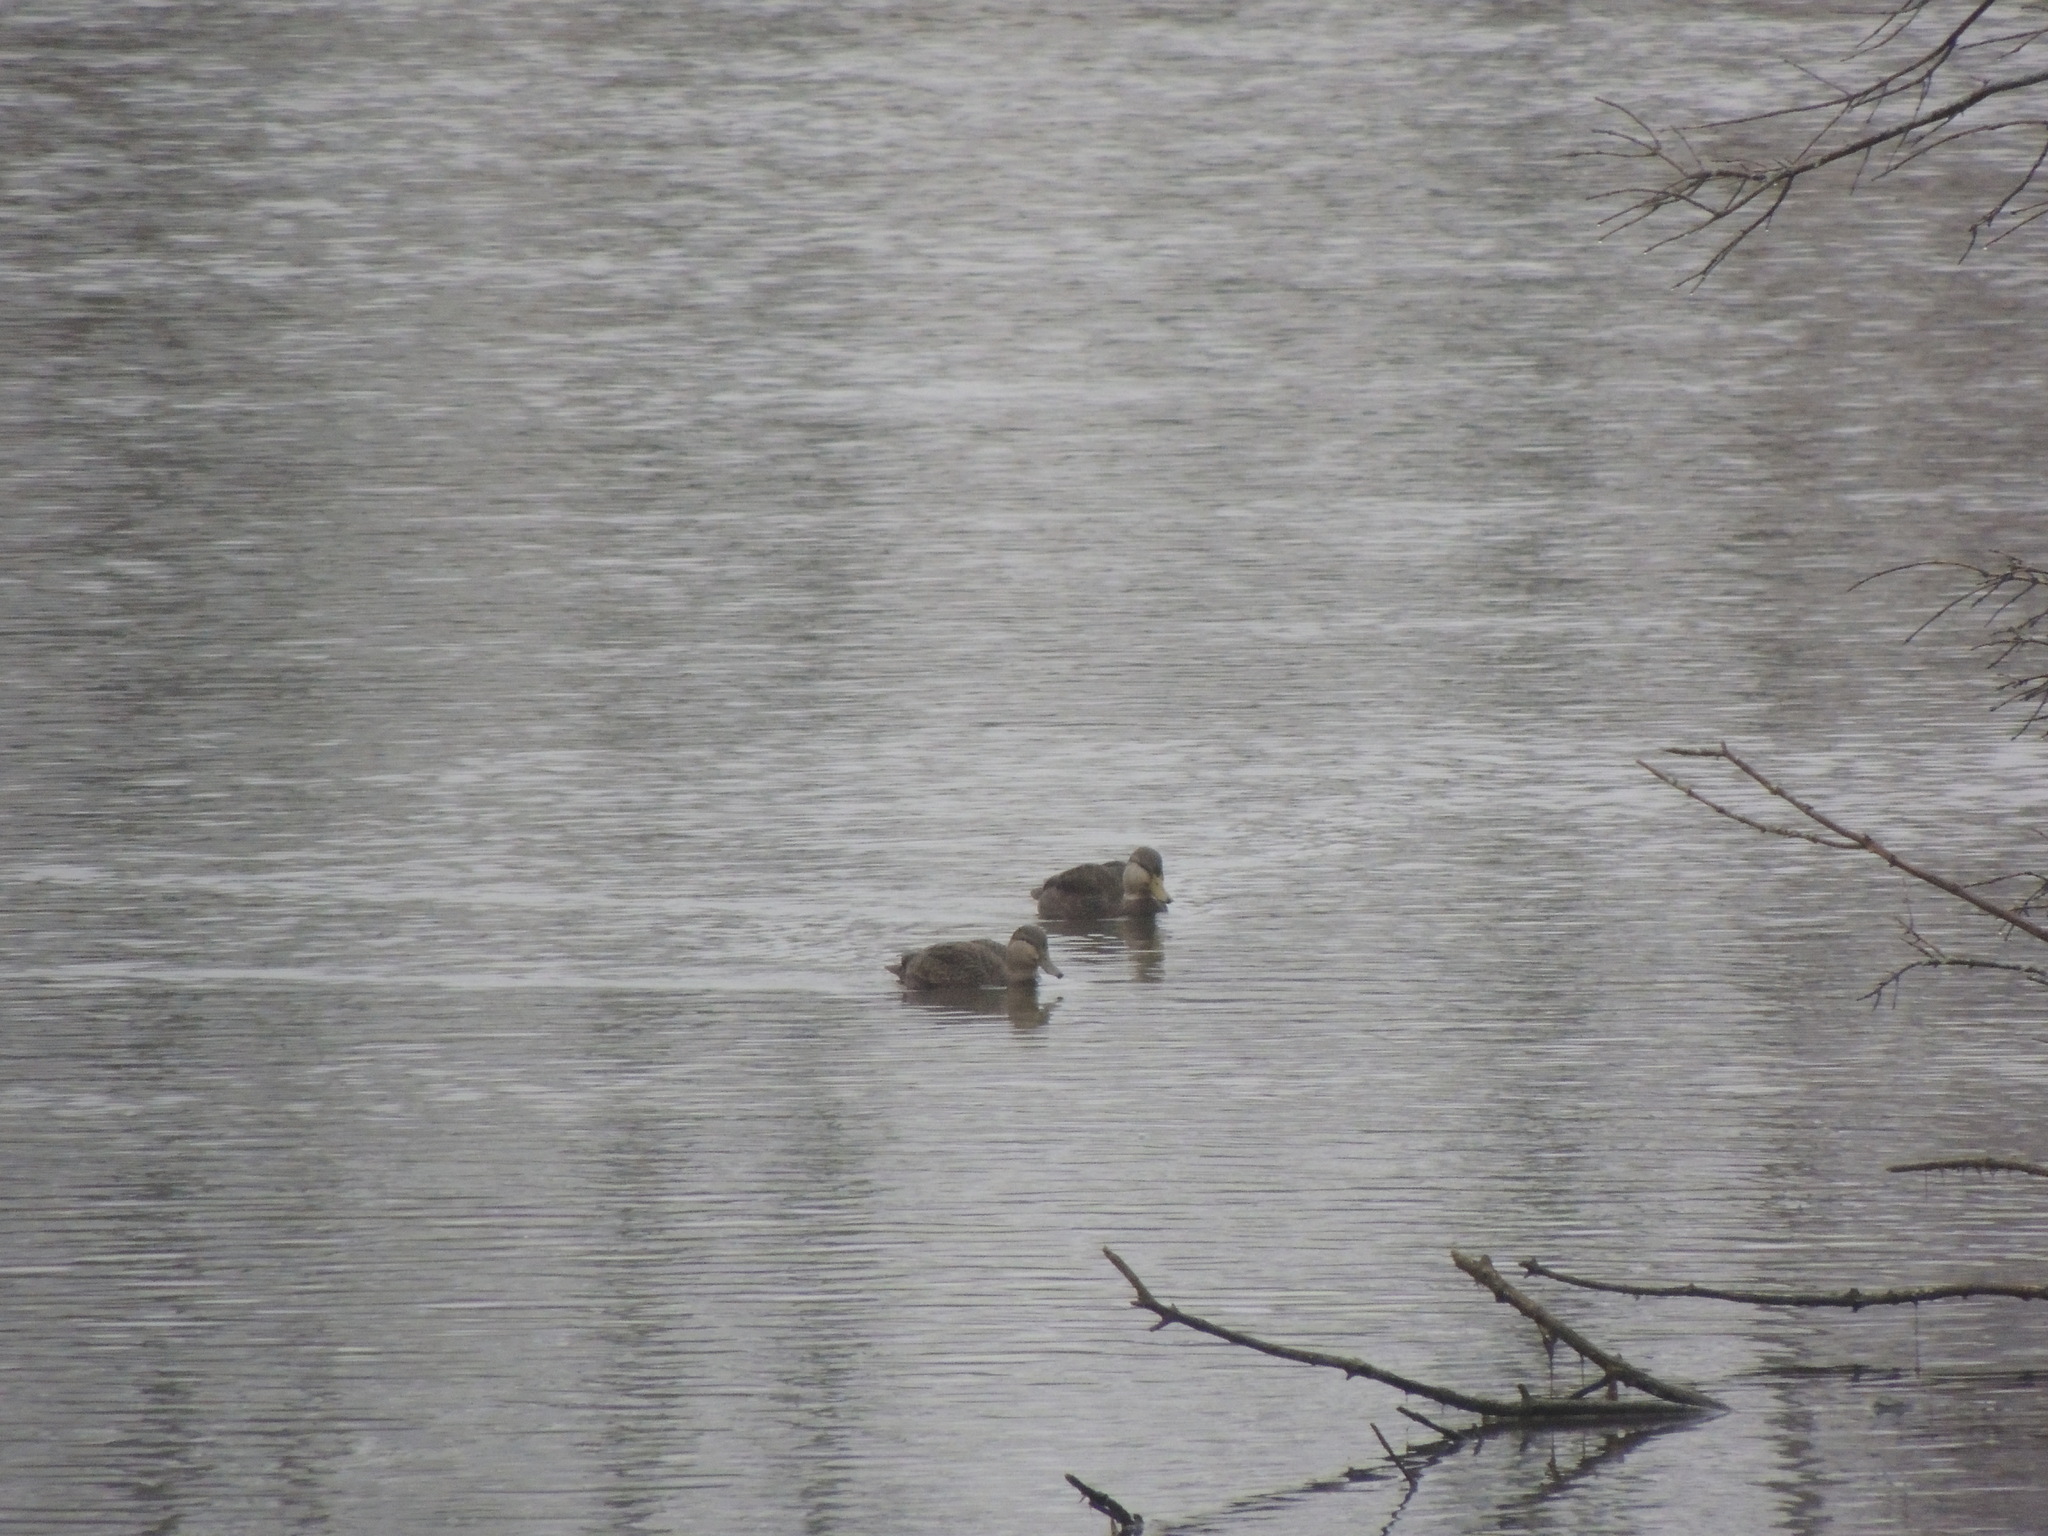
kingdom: Animalia
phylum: Chordata
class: Aves
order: Anseriformes
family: Anatidae
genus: Anas
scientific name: Anas rubripes
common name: American black duck
